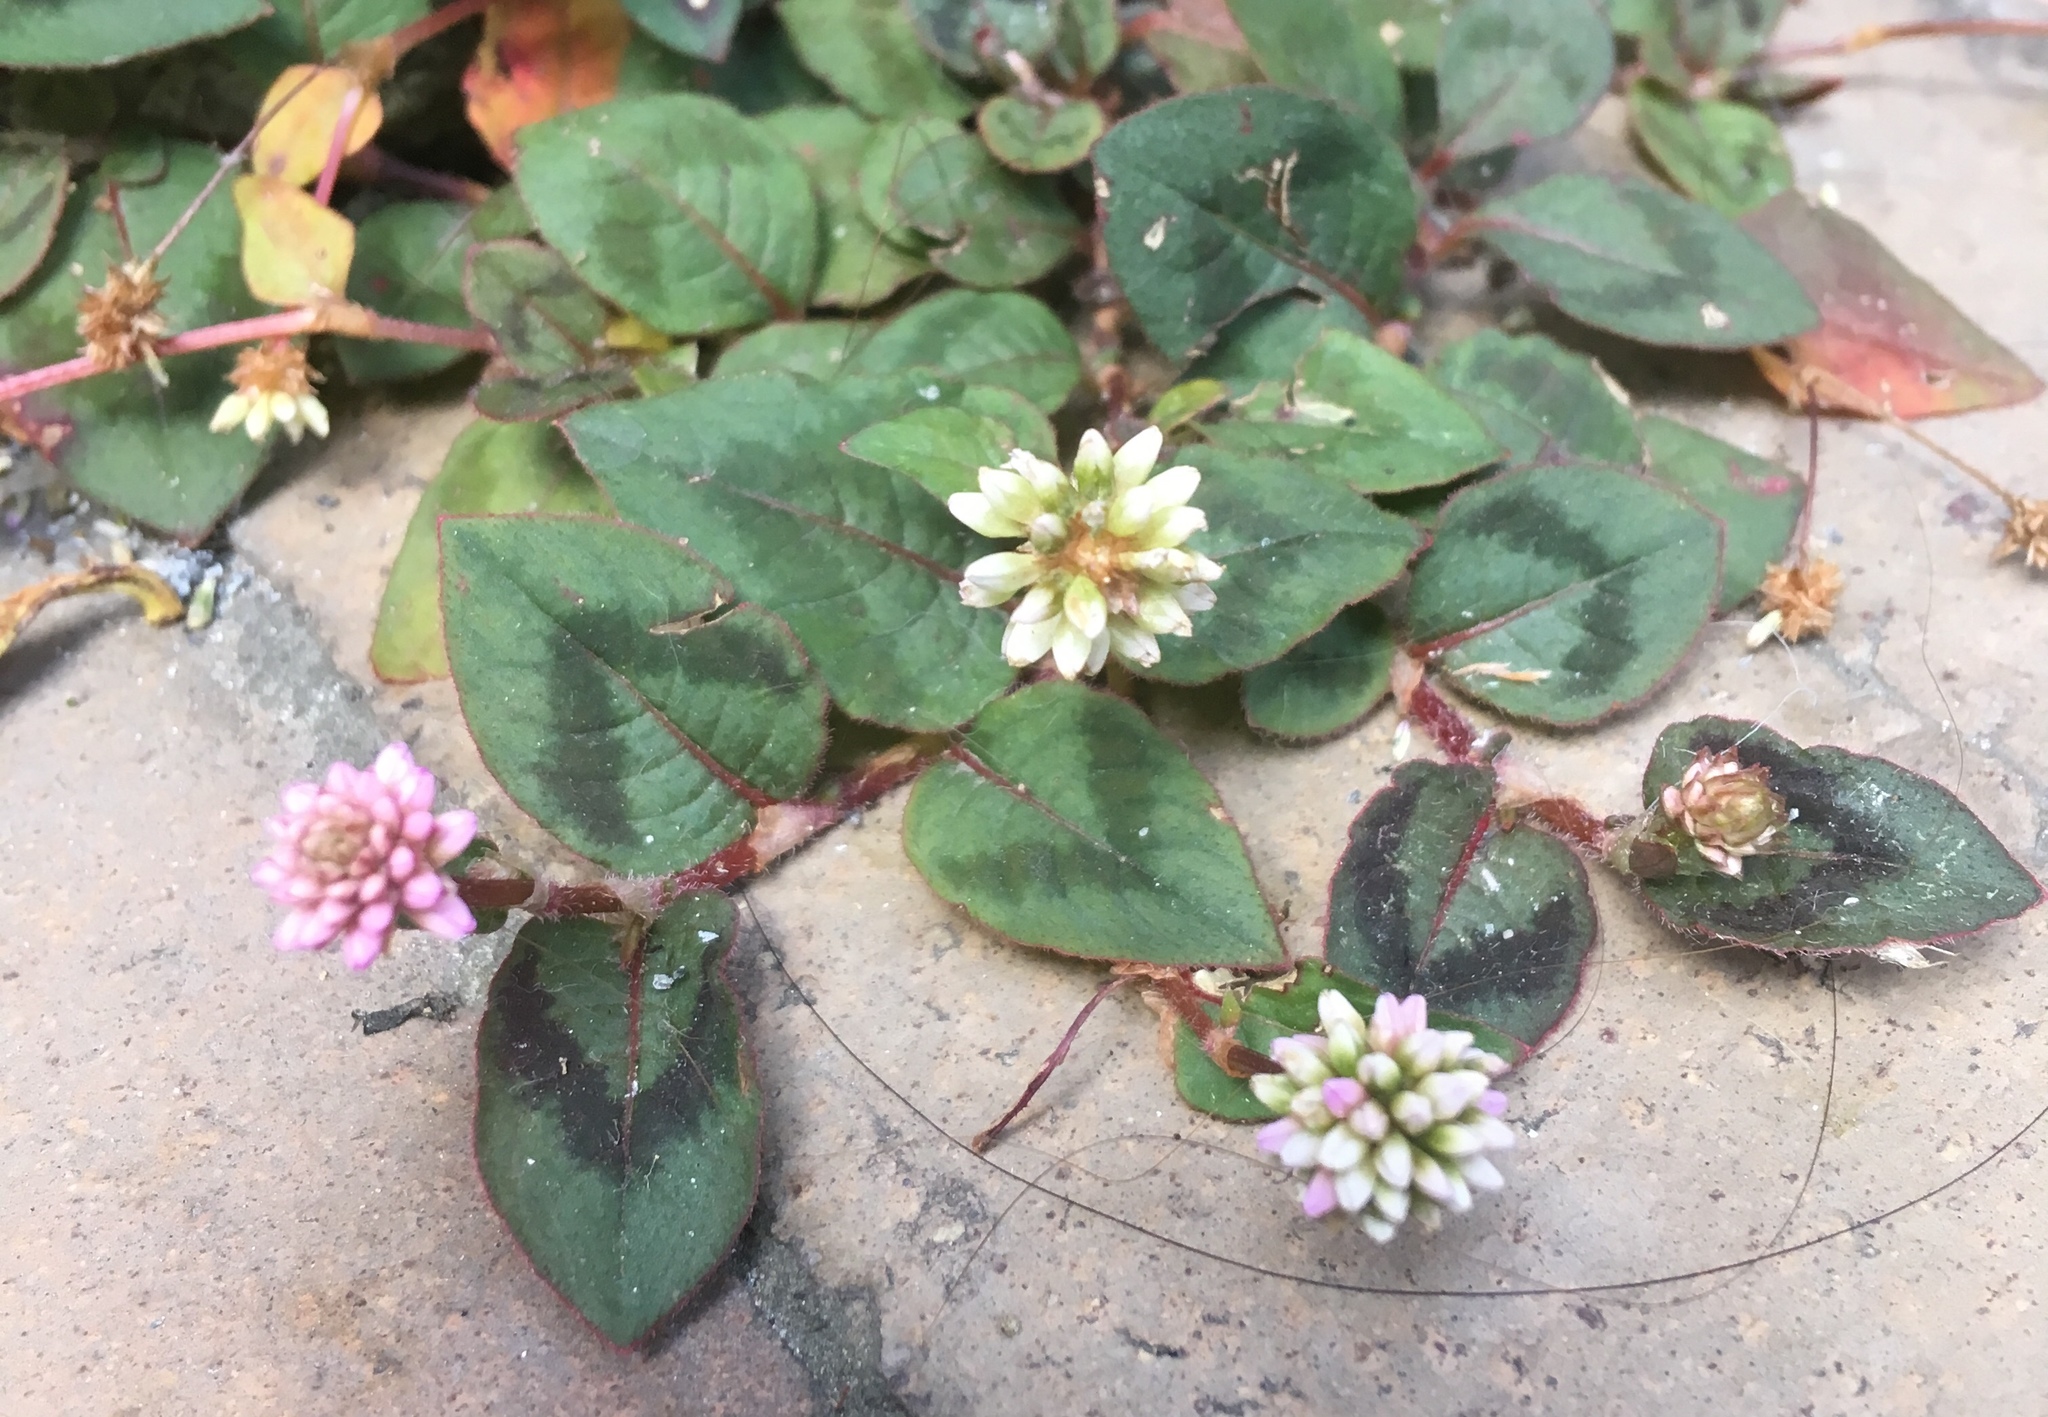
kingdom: Plantae
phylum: Tracheophyta
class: Magnoliopsida
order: Caryophyllales
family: Polygonaceae
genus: Persicaria
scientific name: Persicaria capitata
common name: Pinkhead smartweed
